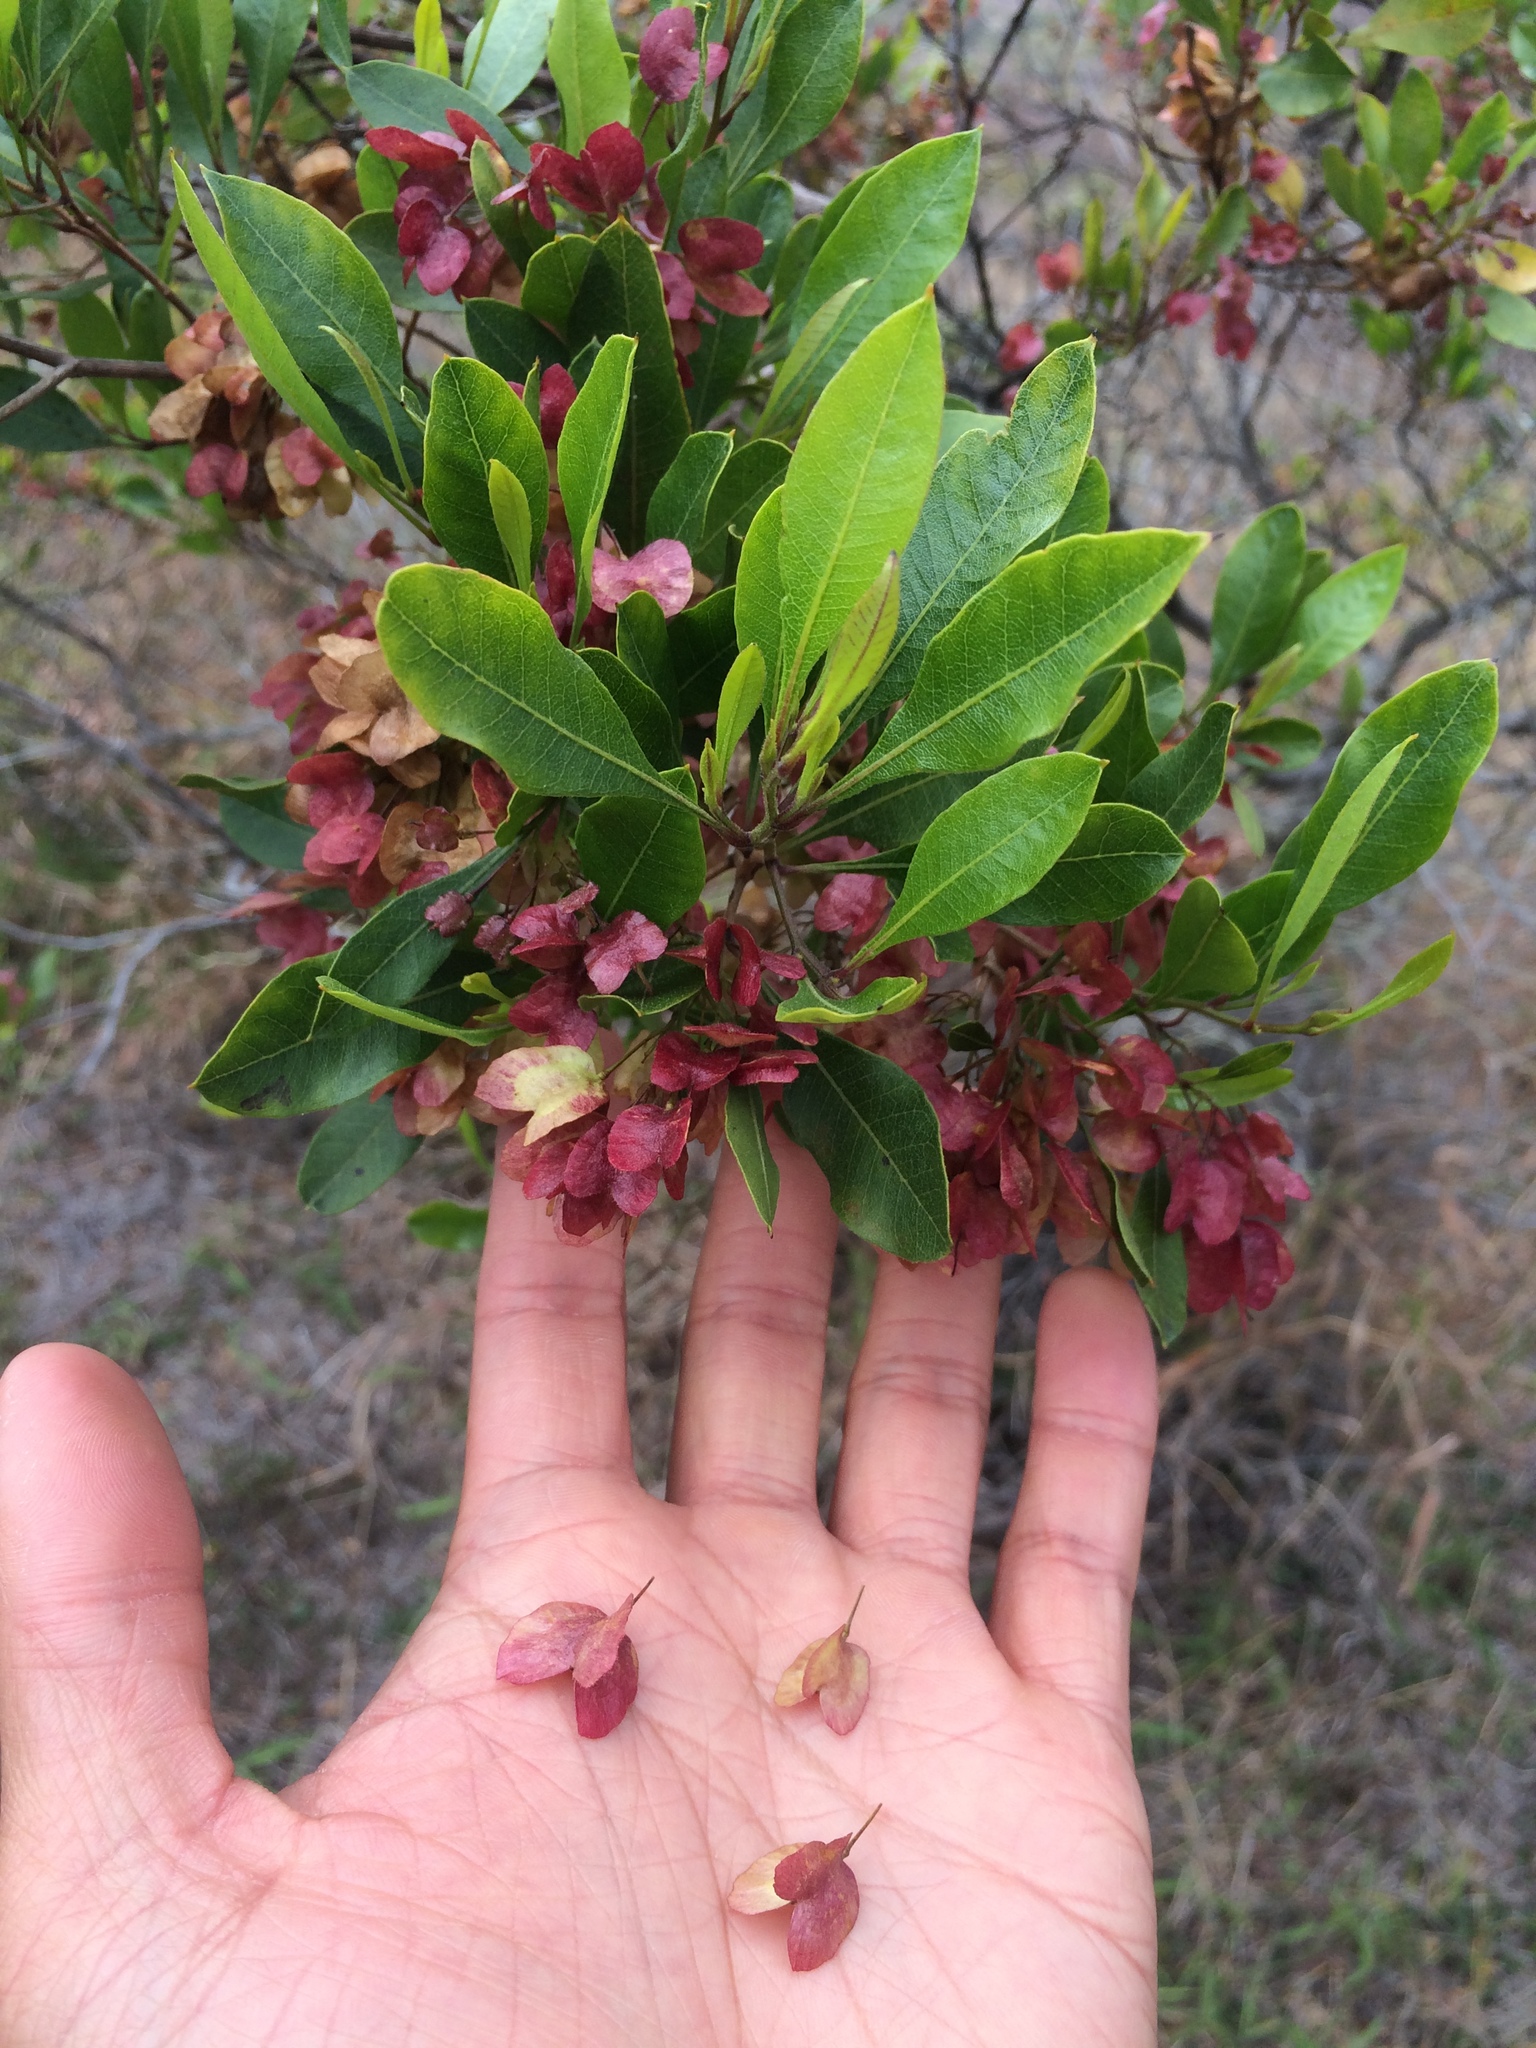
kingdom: Plantae
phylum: Tracheophyta
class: Magnoliopsida
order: Sapindales
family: Sapindaceae
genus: Dodonaea
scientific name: Dodonaea viscosa
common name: Hopbush
